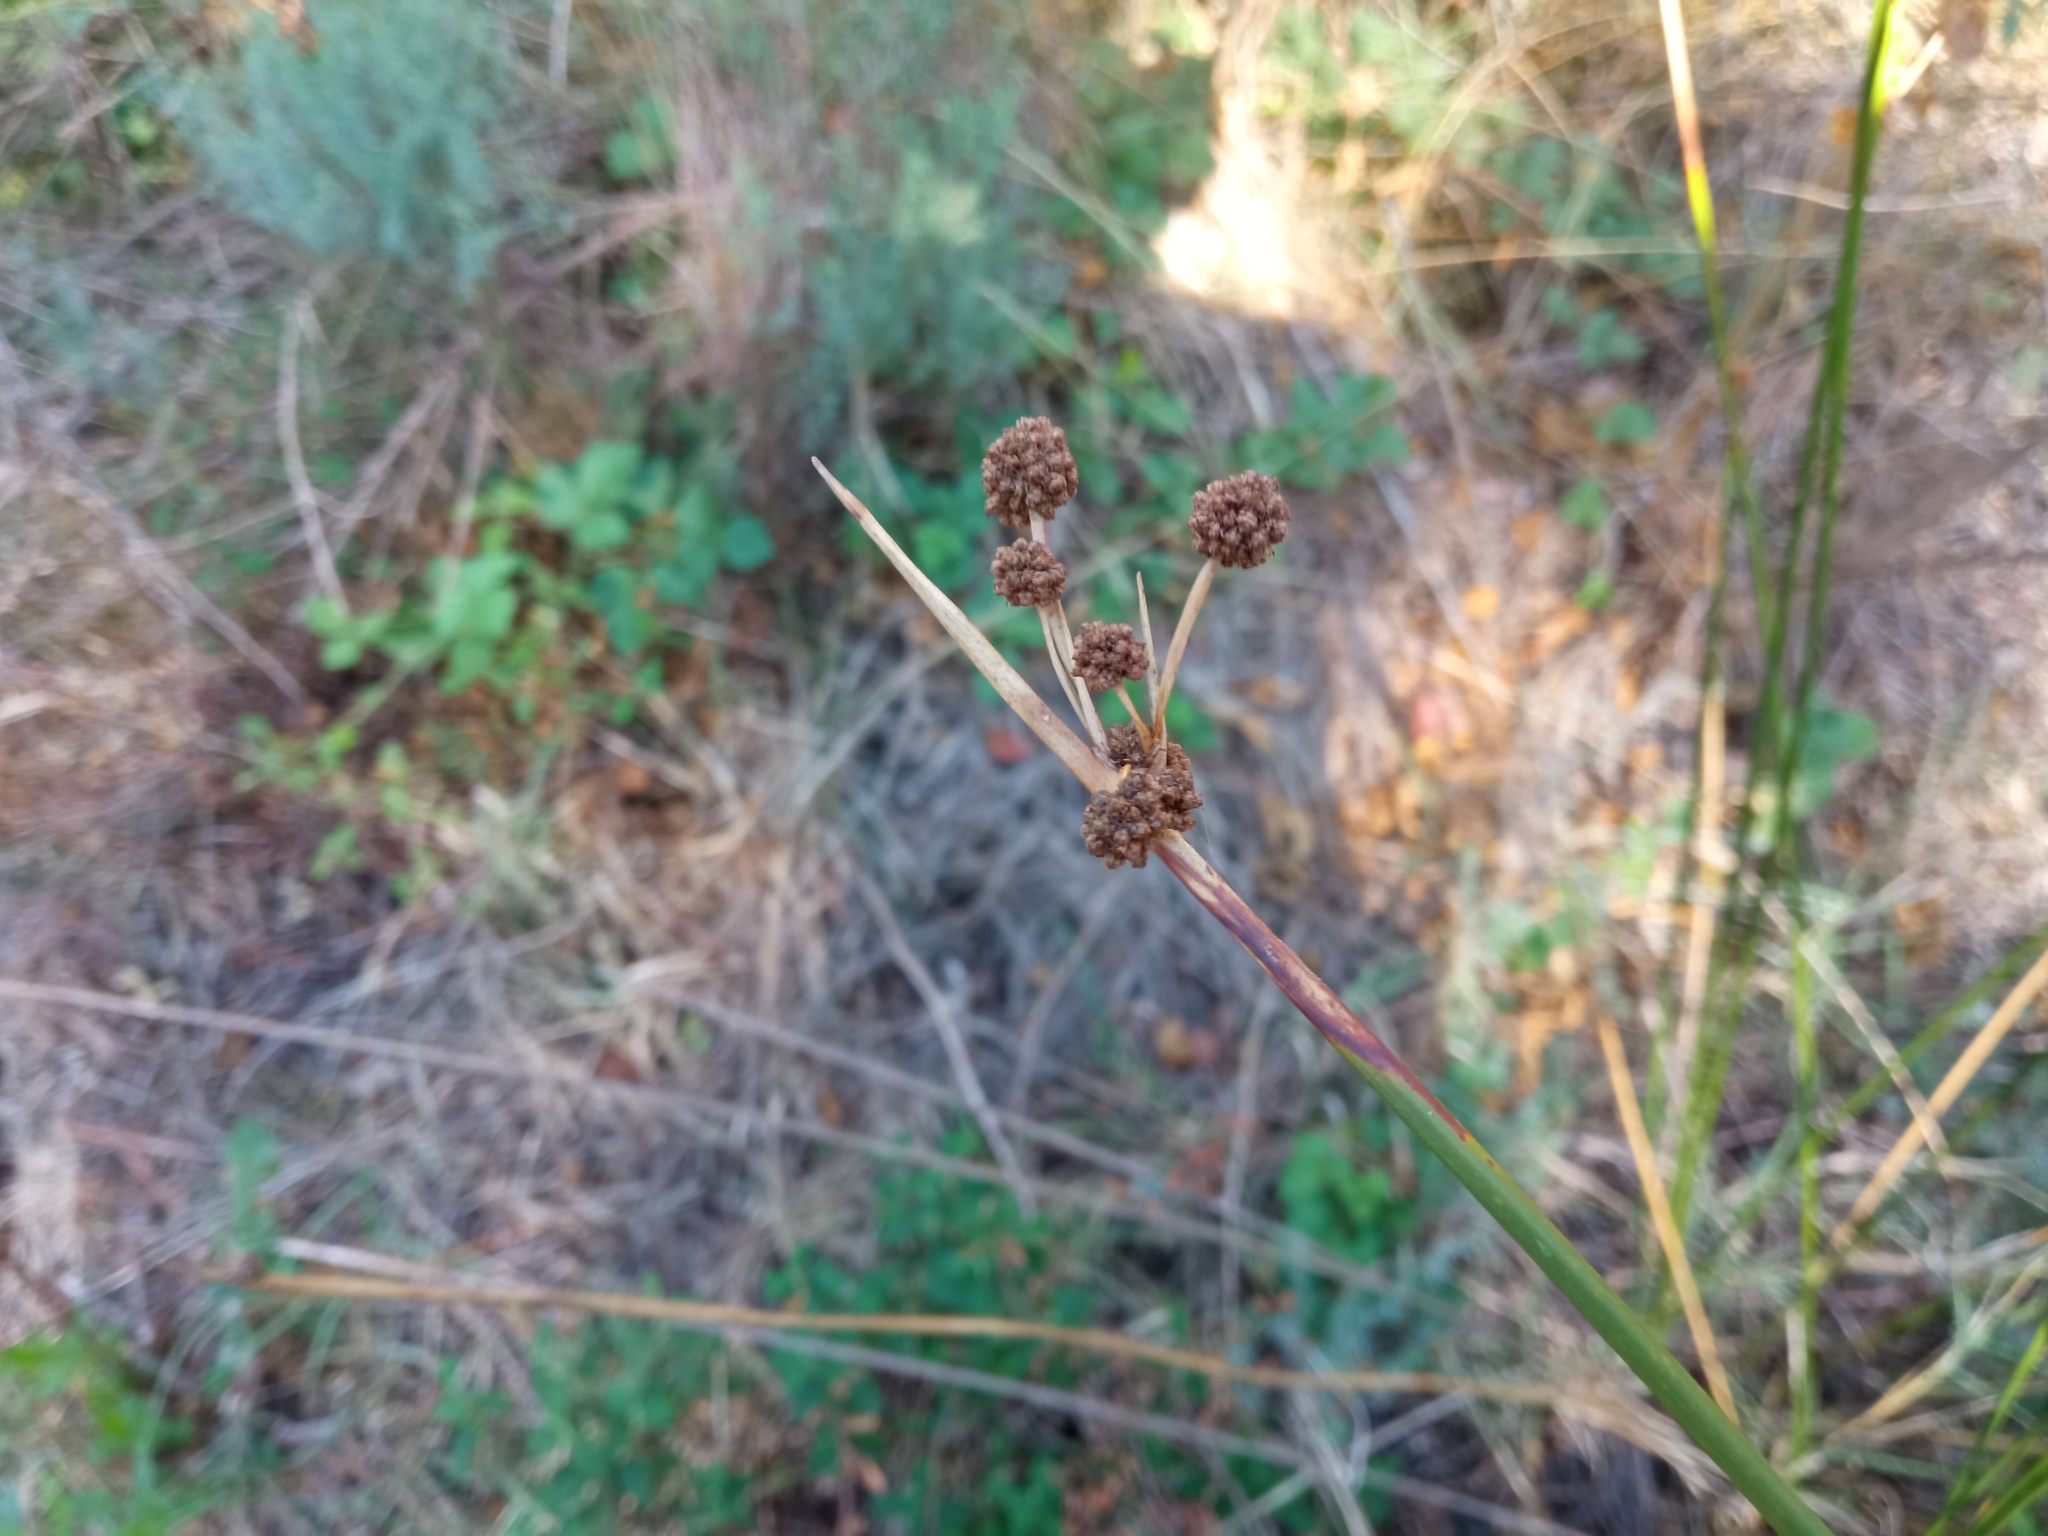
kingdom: Plantae
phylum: Tracheophyta
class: Liliopsida
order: Poales
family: Cyperaceae
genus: Scirpoides
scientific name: Scirpoides holoschoenus
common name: Round-headed club-rush
